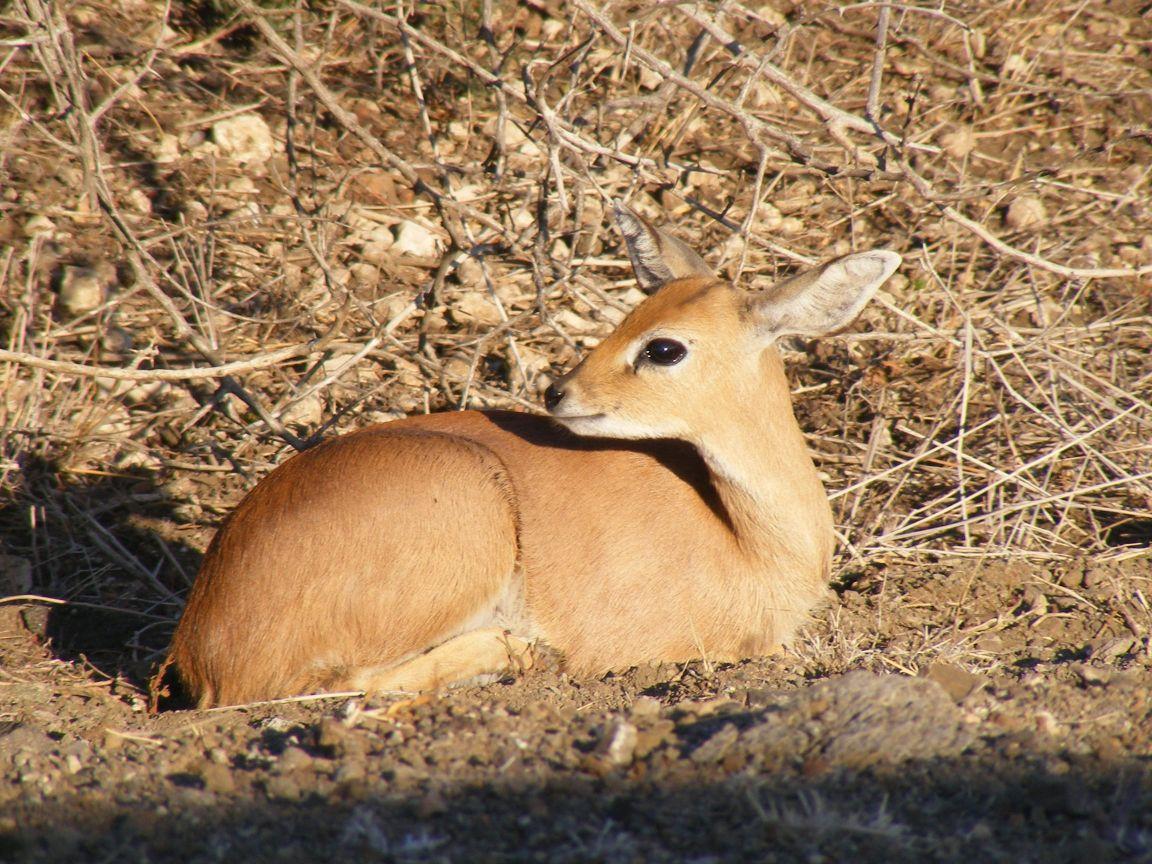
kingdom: Animalia
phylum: Chordata
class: Mammalia
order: Artiodactyla
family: Bovidae
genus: Raphicerus
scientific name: Raphicerus campestris
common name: Steenbok
